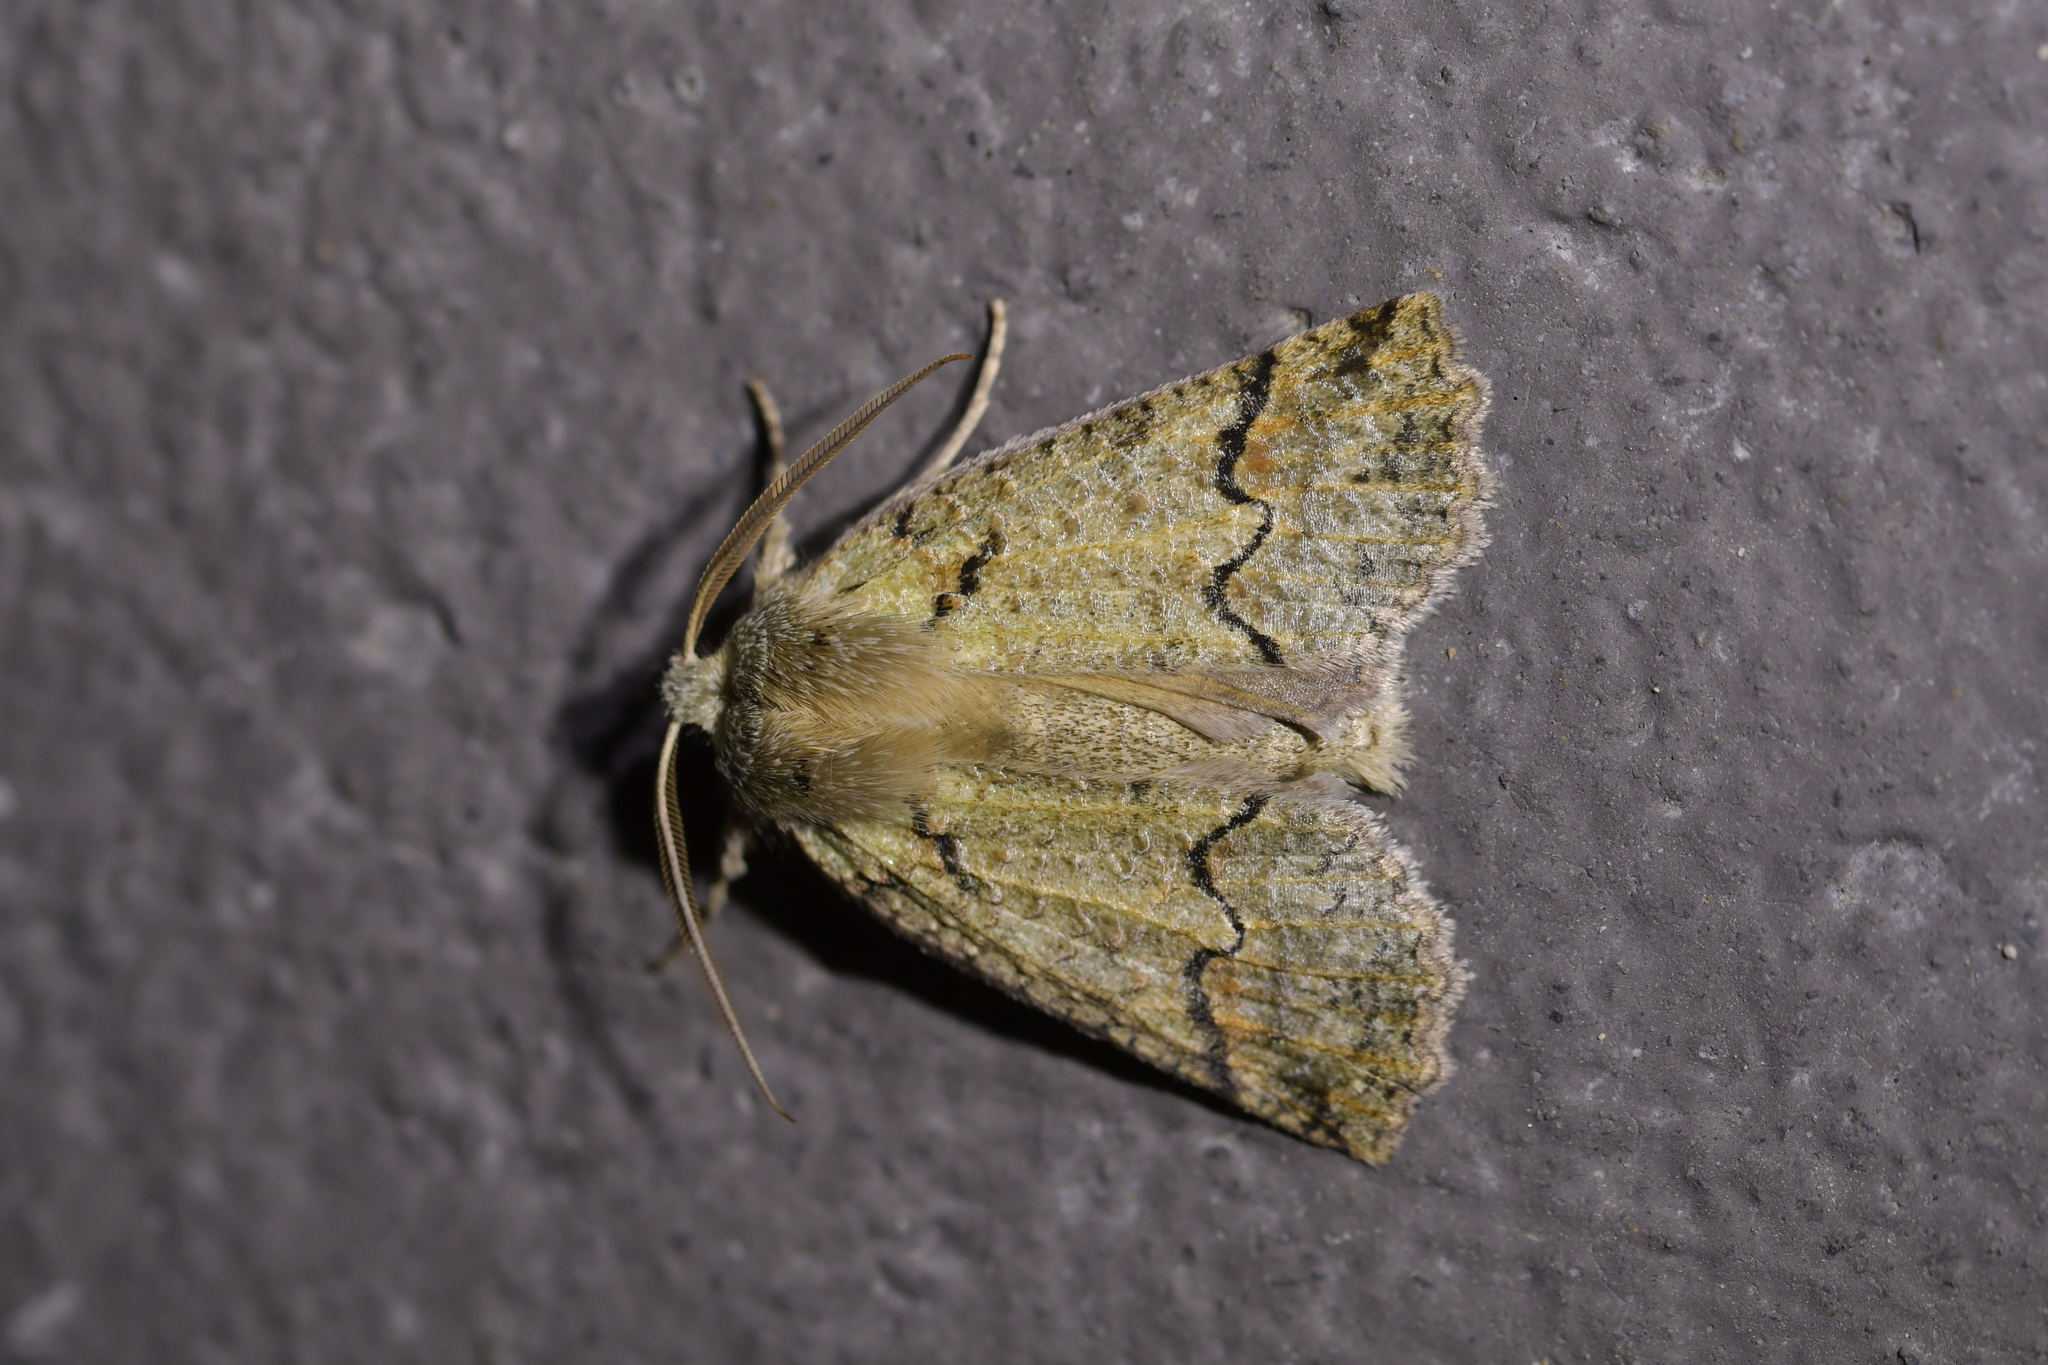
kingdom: Animalia
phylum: Arthropoda
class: Insecta
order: Lepidoptera
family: Geometridae
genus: Declana
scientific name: Declana floccosa
